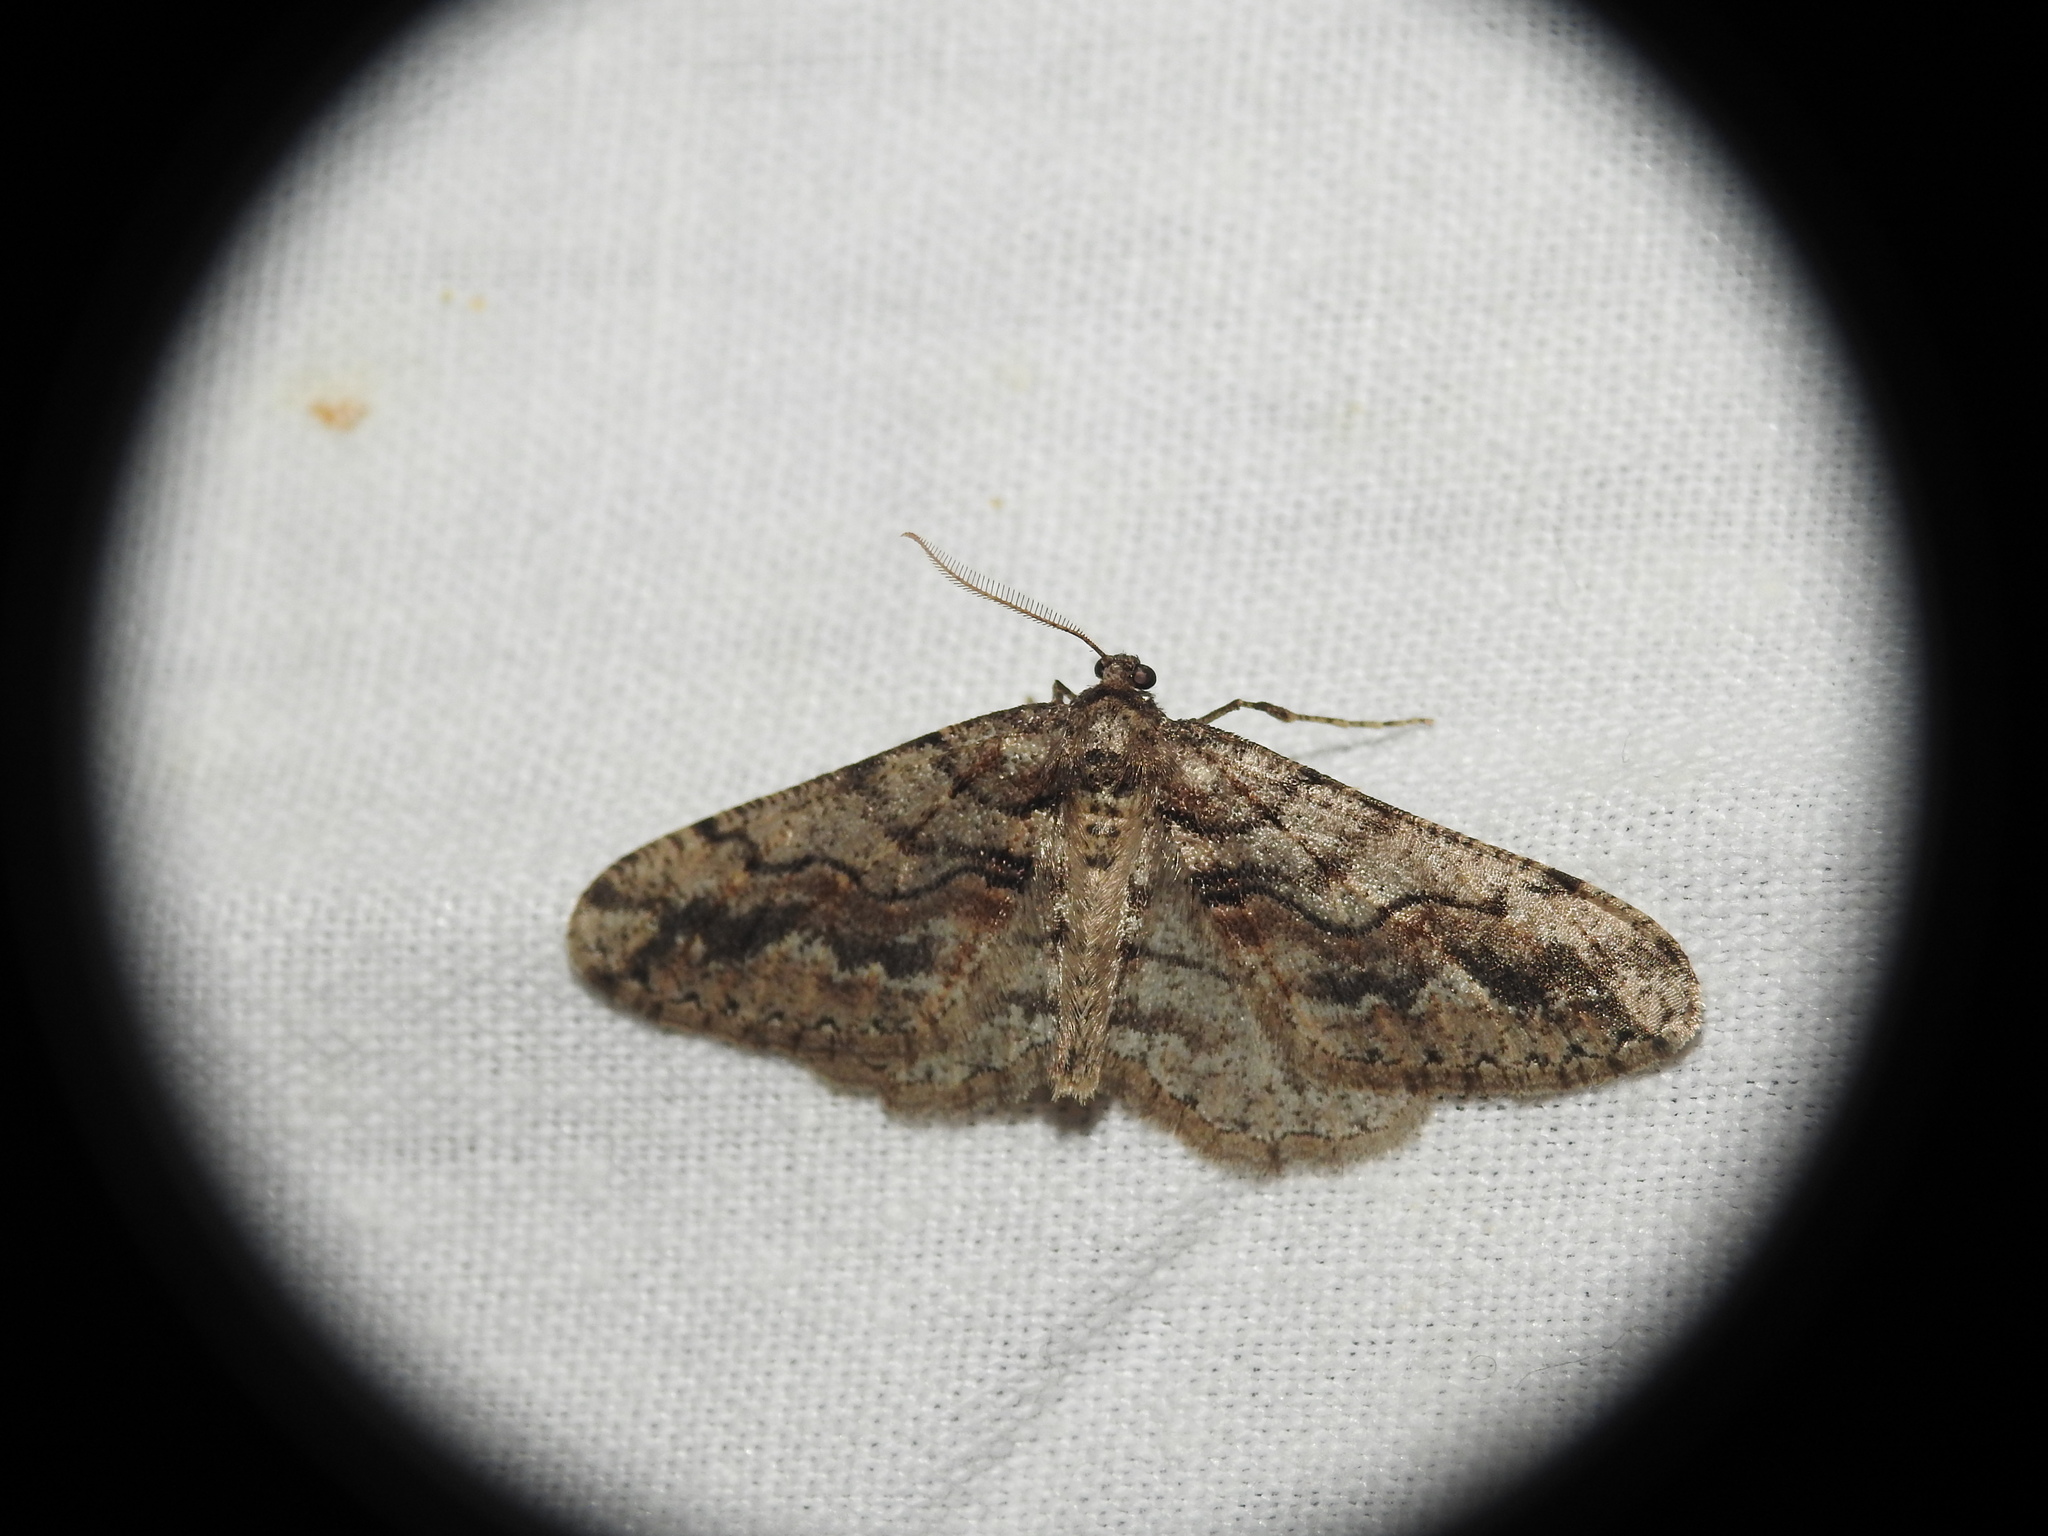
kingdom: Animalia
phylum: Arthropoda
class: Insecta
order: Lepidoptera
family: Geometridae
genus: Agriopis
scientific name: Agriopis bajaria
